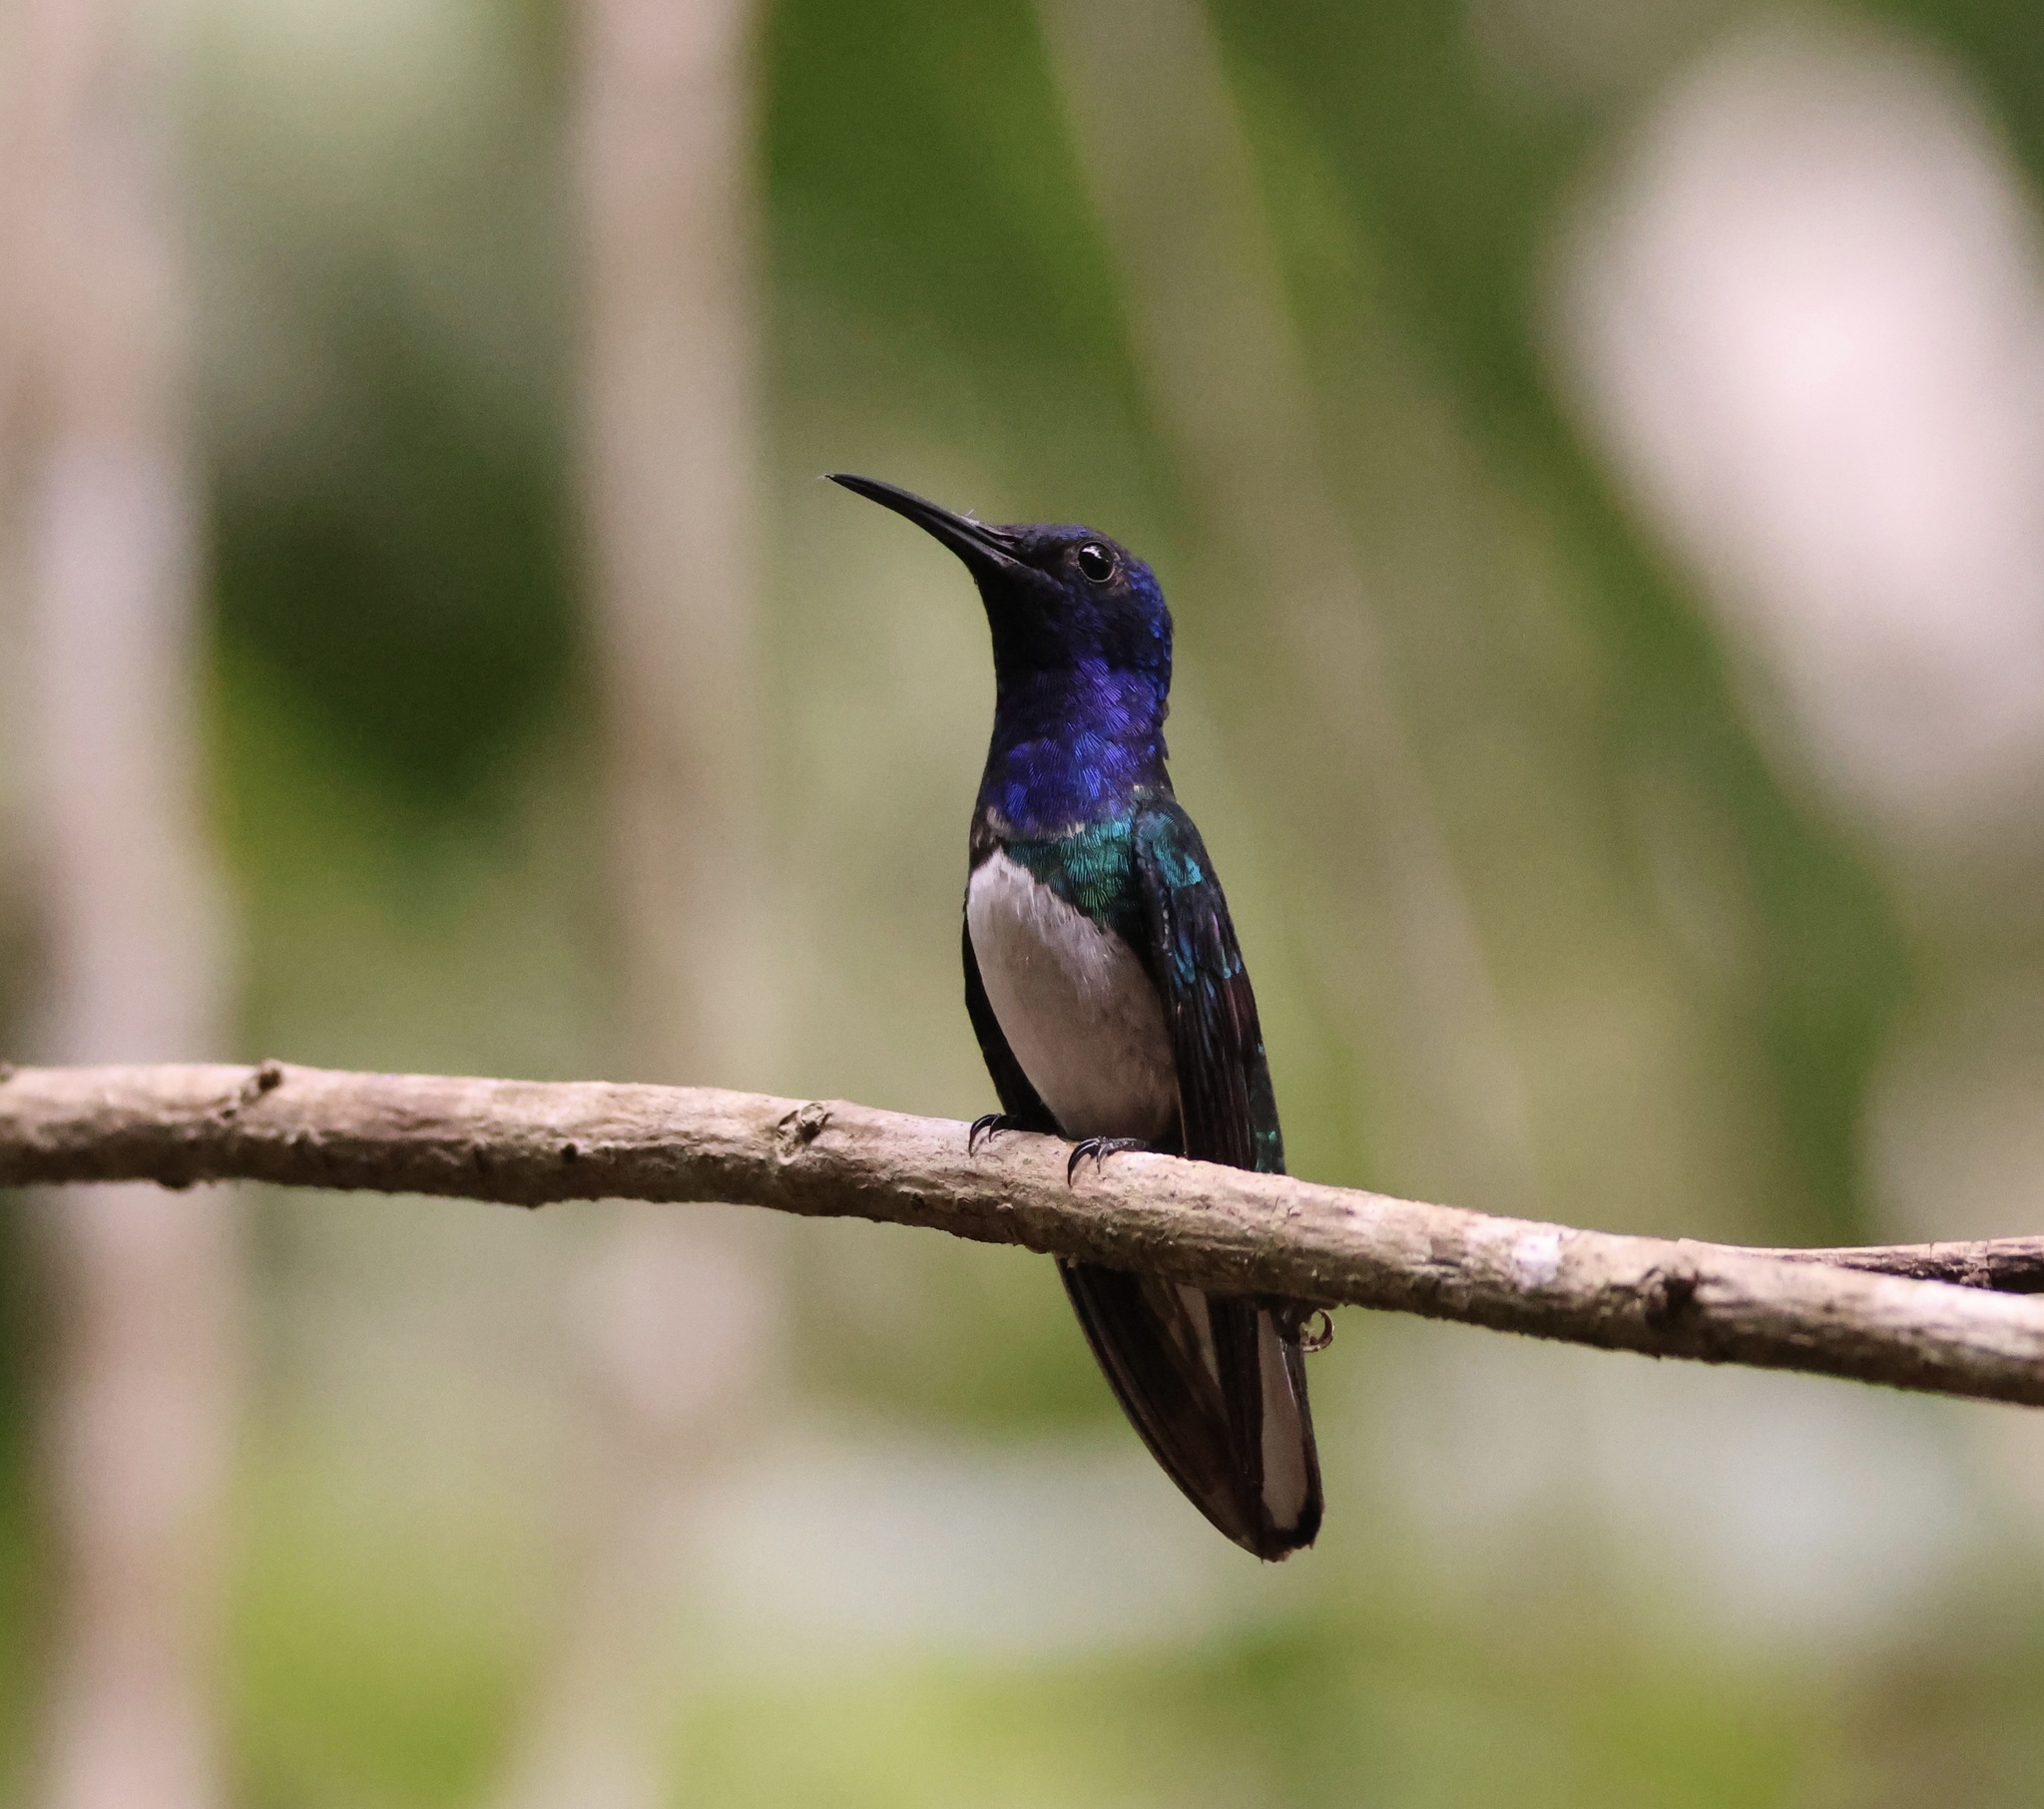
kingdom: Animalia
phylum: Chordata
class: Aves
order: Apodiformes
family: Trochilidae
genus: Florisuga
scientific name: Florisuga mellivora
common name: White-necked jacobin
